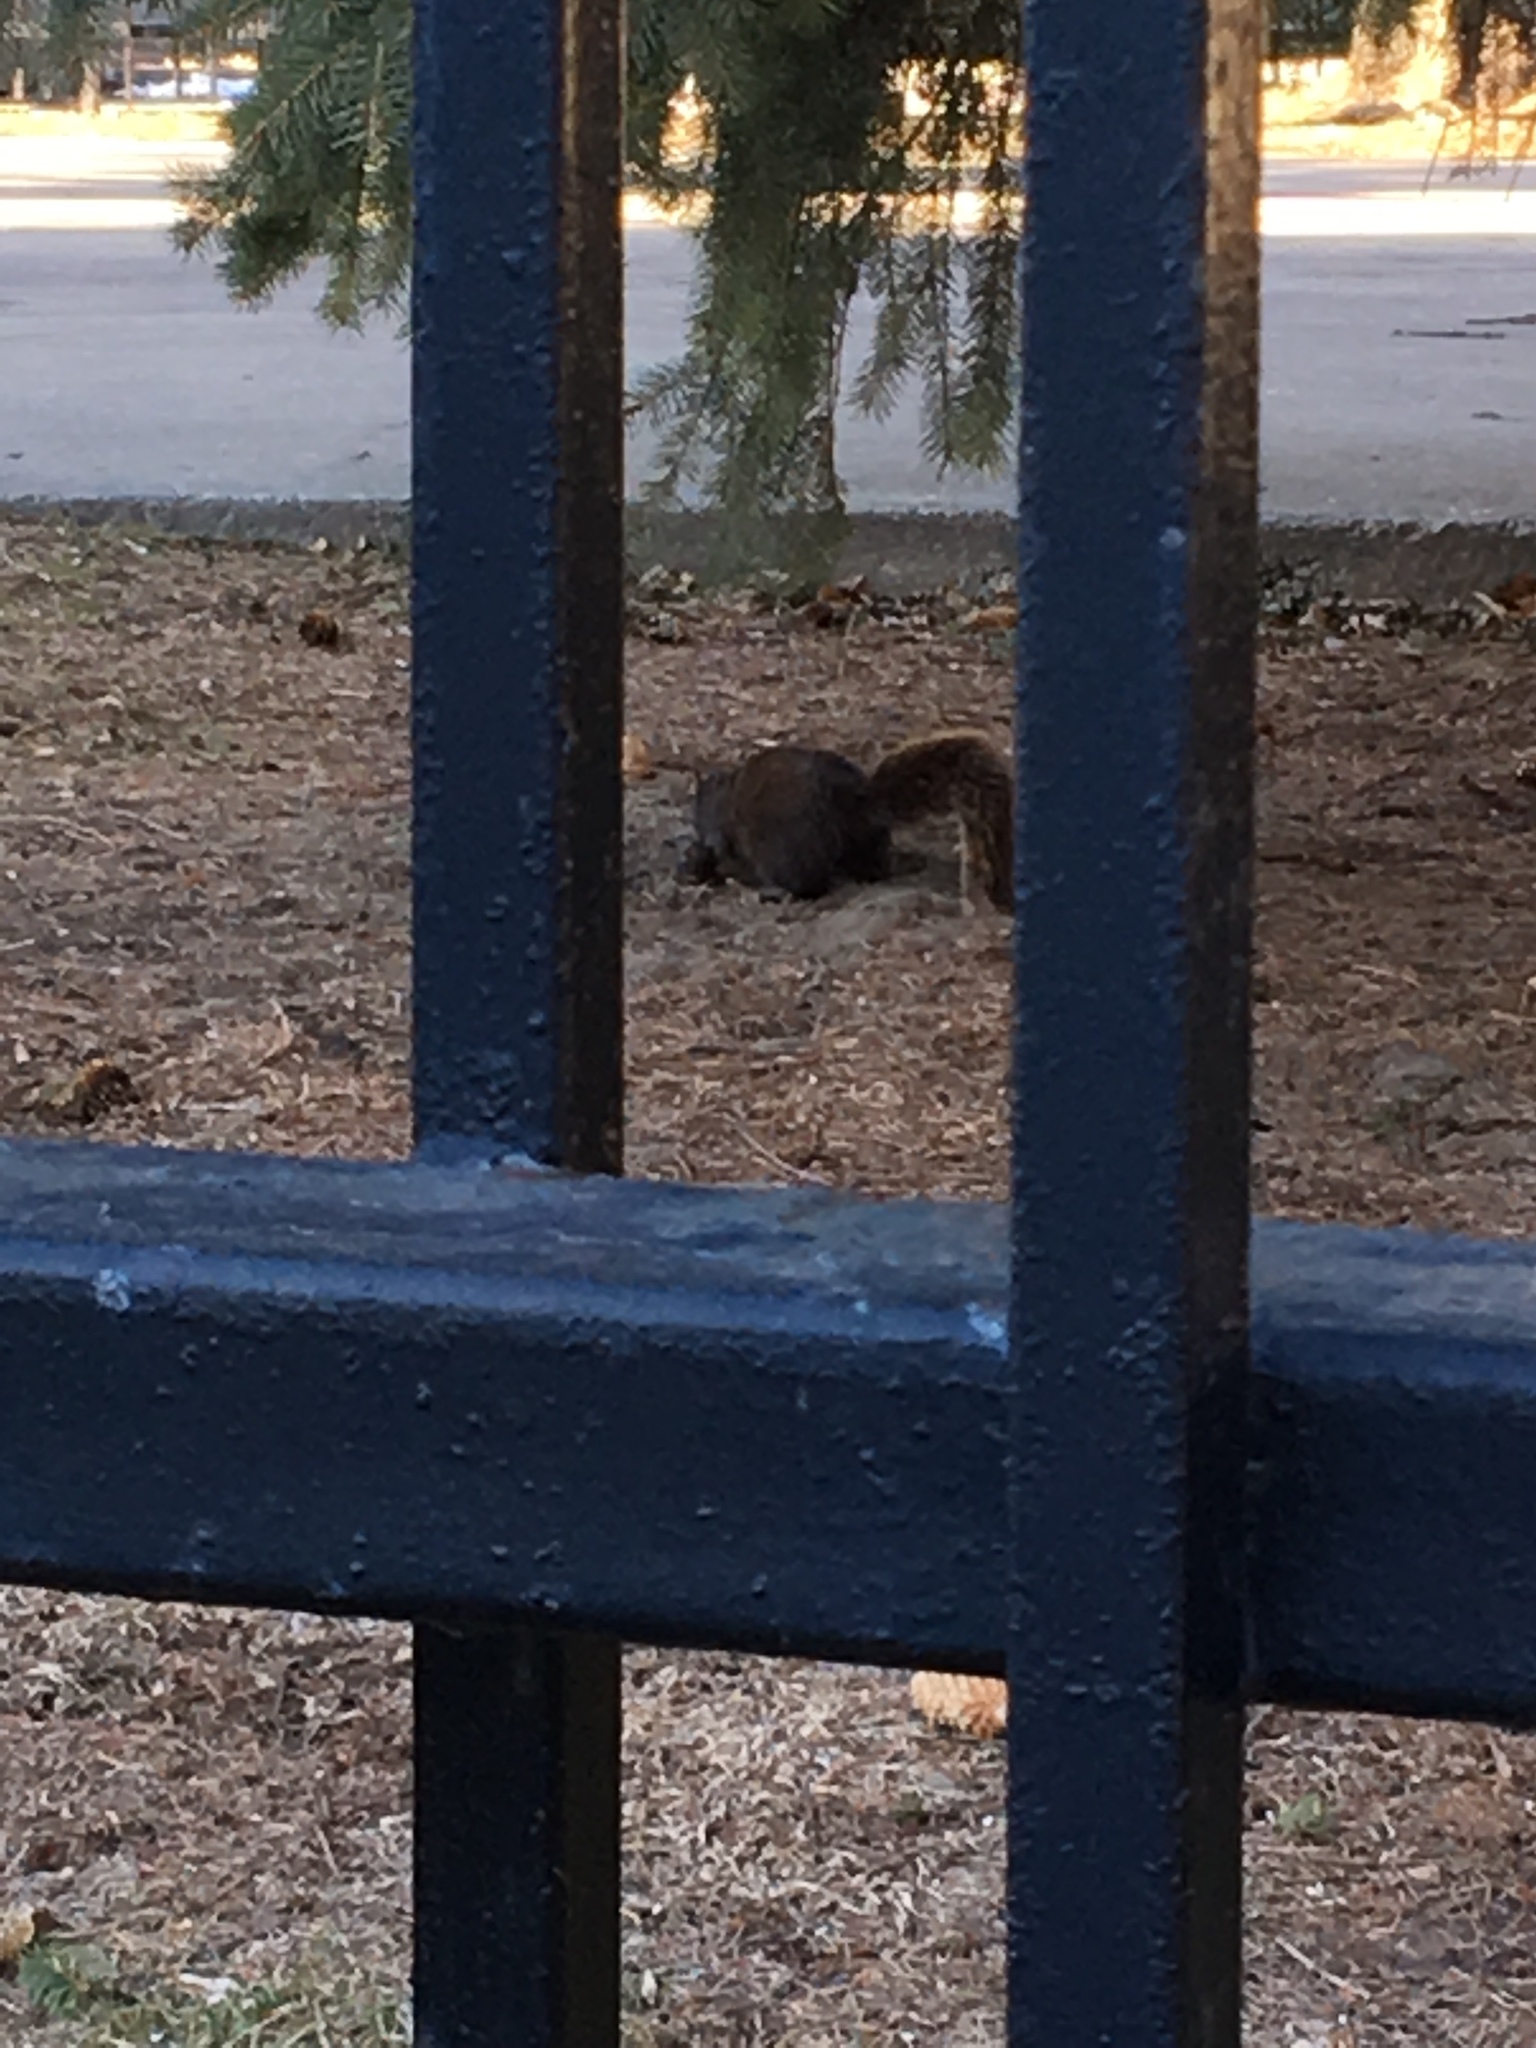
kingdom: Animalia
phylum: Chordata
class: Mammalia
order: Rodentia
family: Sciuridae
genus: Sciurus
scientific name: Sciurus carolinensis
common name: Eastern gray squirrel
